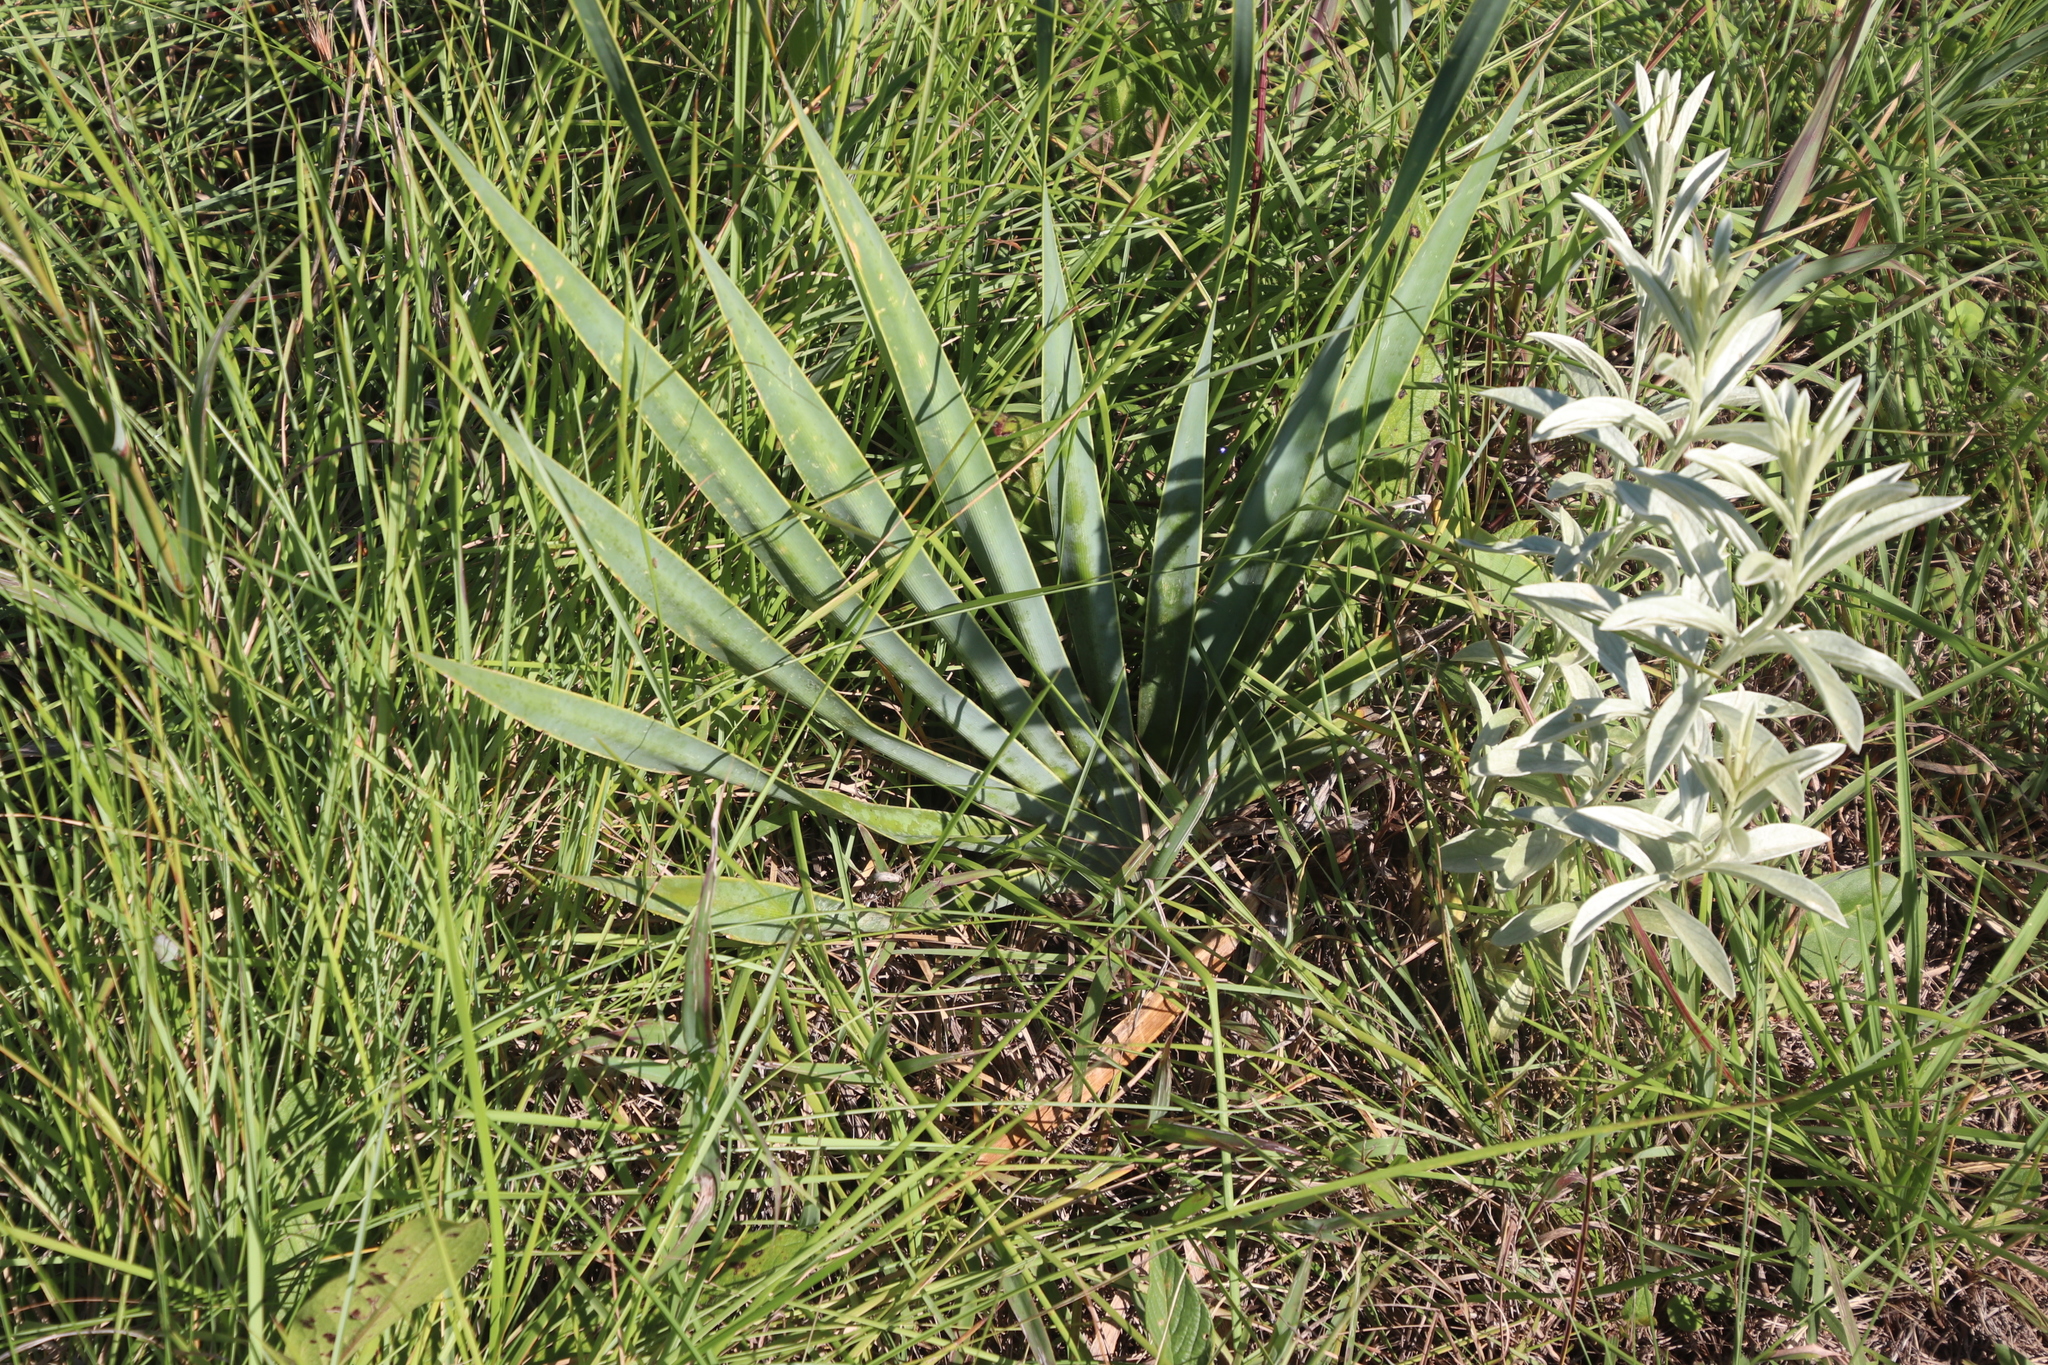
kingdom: Plantae
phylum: Tracheophyta
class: Liliopsida
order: Asparagales
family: Amaryllidaceae
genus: Boophone
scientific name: Boophone disticha
